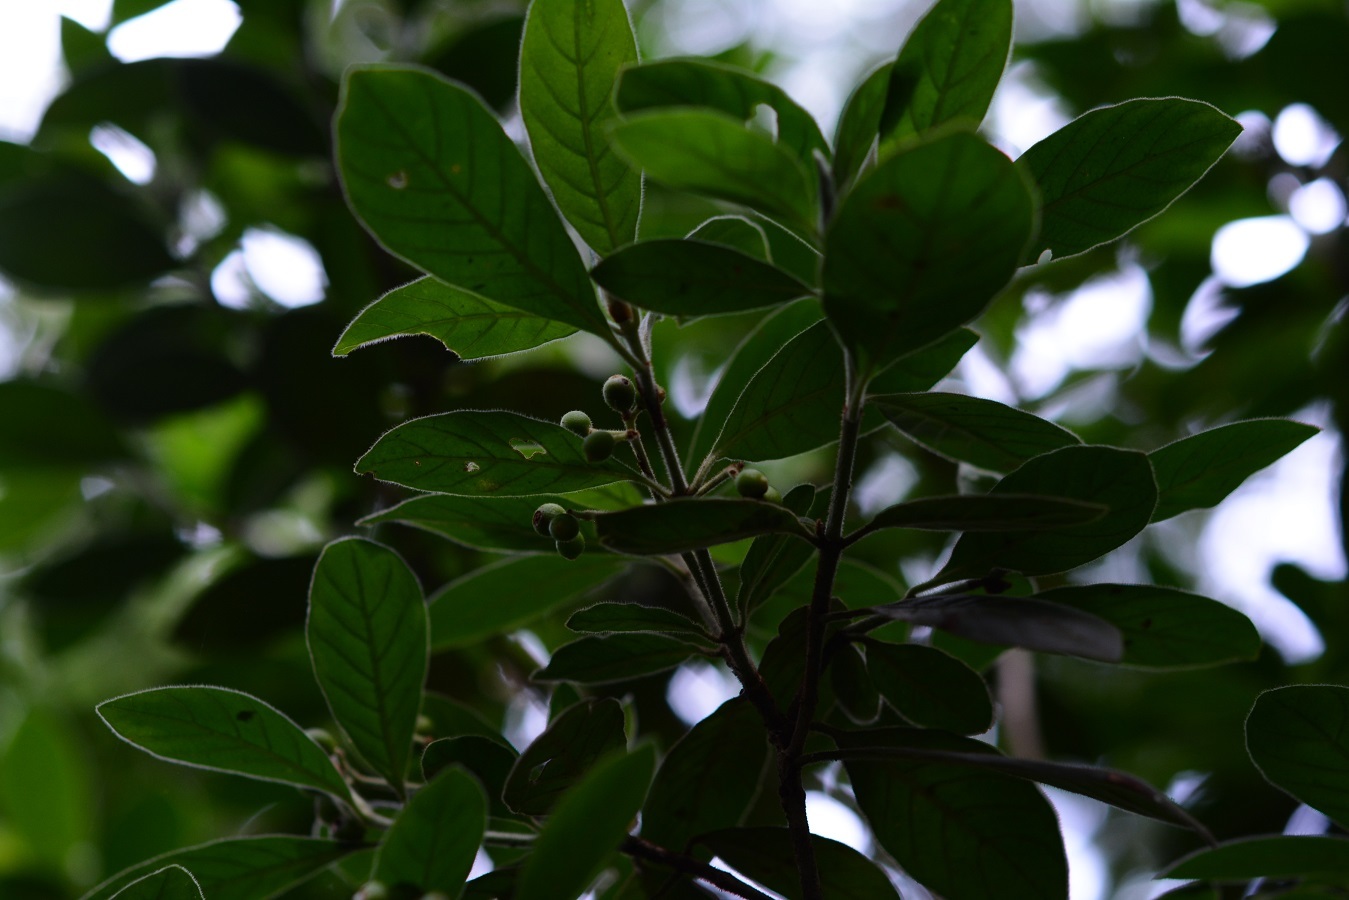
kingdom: Plantae
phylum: Tracheophyta
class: Magnoliopsida
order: Gentianales
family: Rubiaceae
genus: Psychotria
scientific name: Psychotria erythrocarpa
